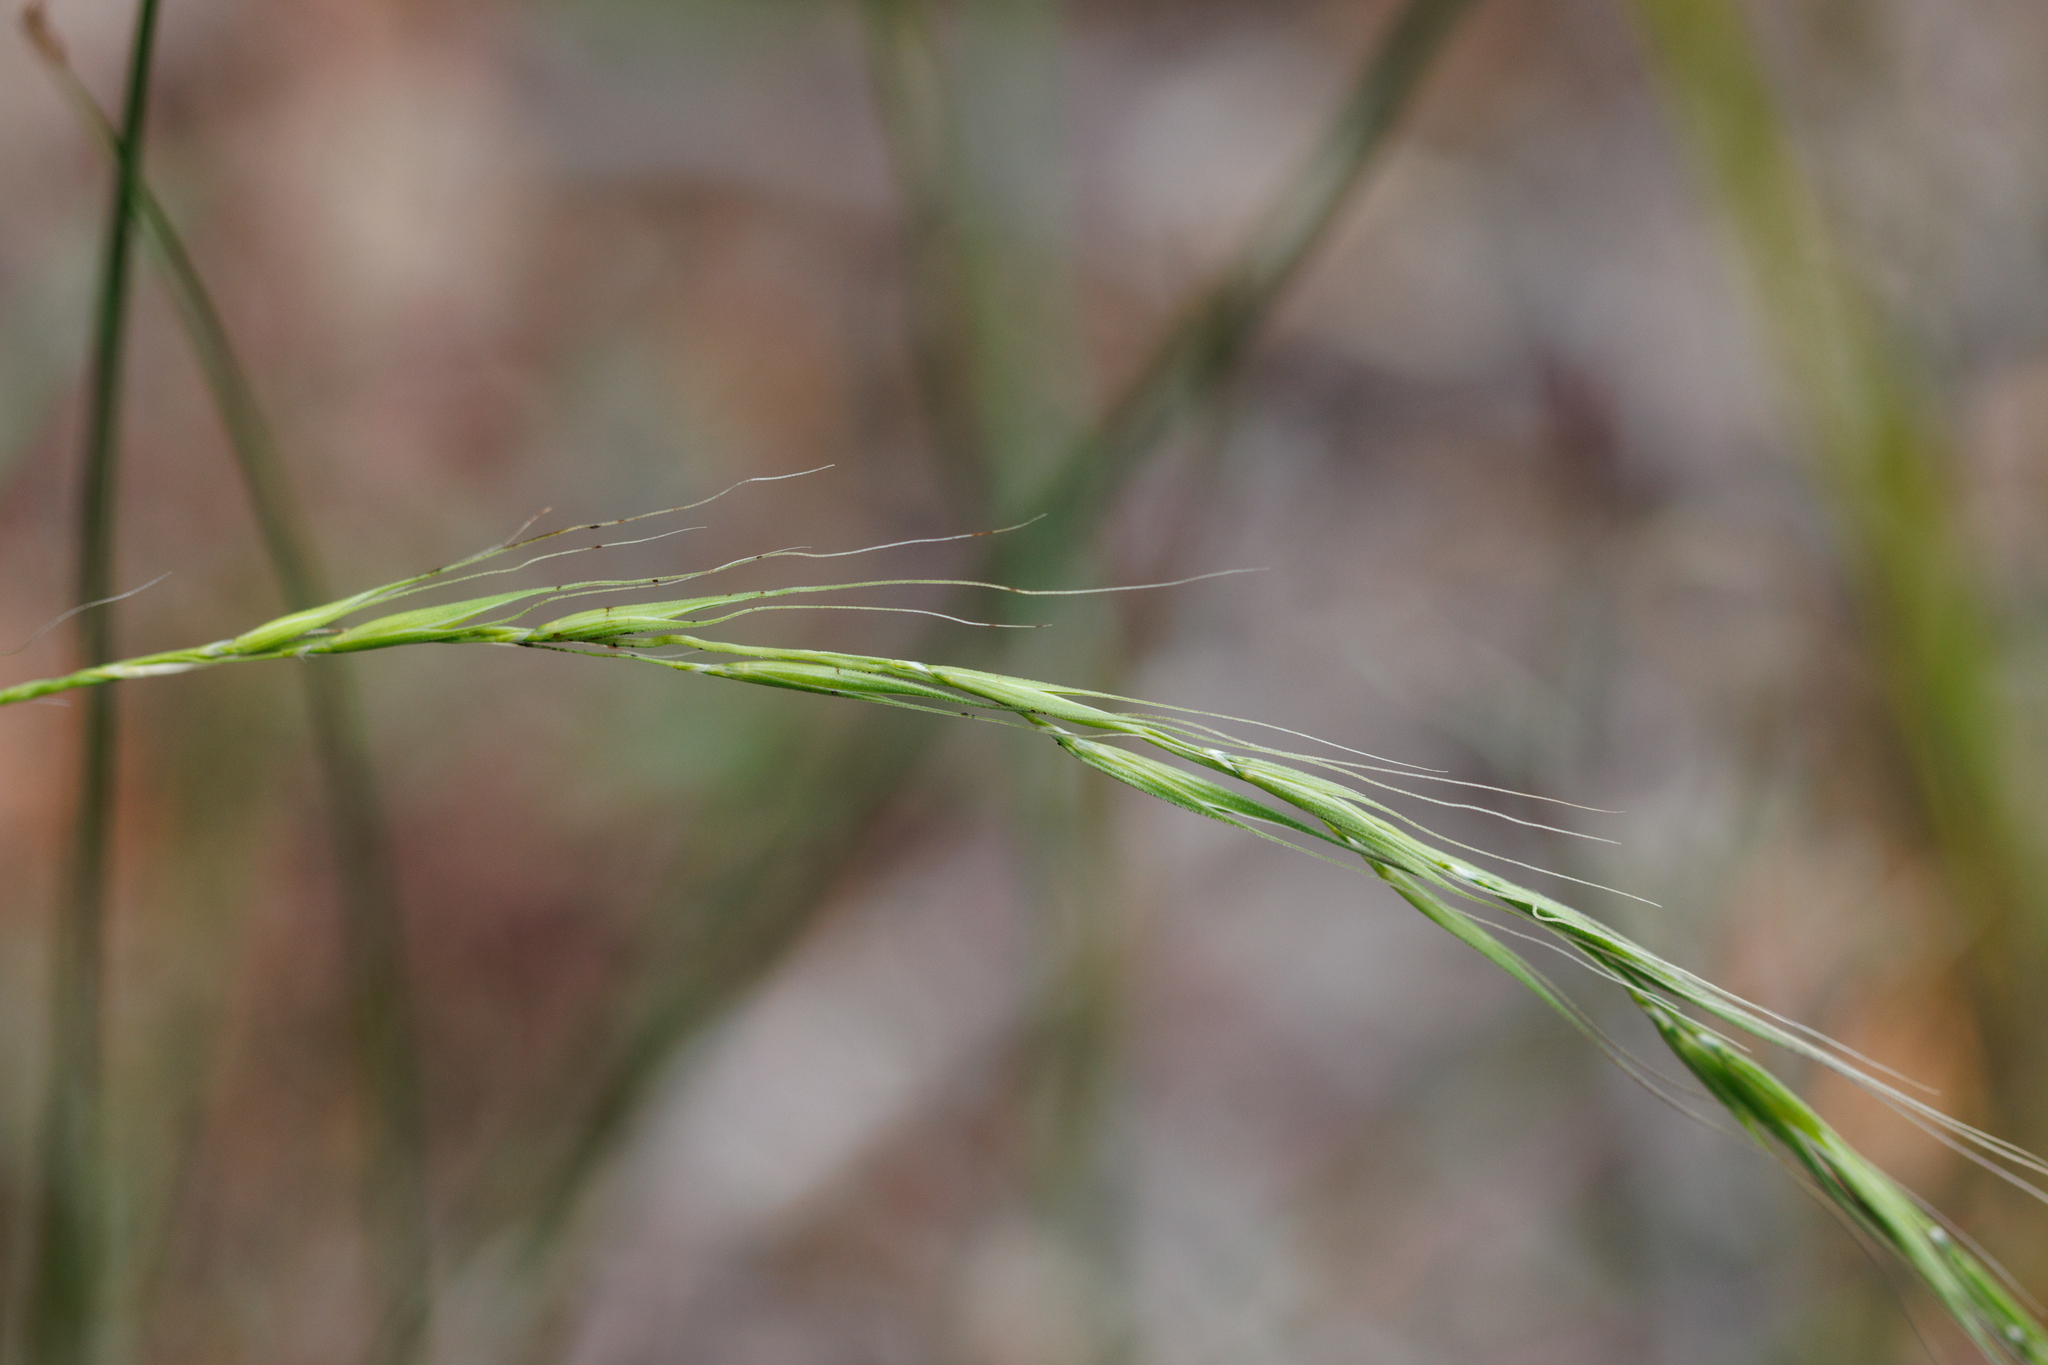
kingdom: Plantae
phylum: Tracheophyta
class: Liliopsida
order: Poales
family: Poaceae
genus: Microlaena
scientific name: Microlaena stipoides
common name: Meadow ricegrass
